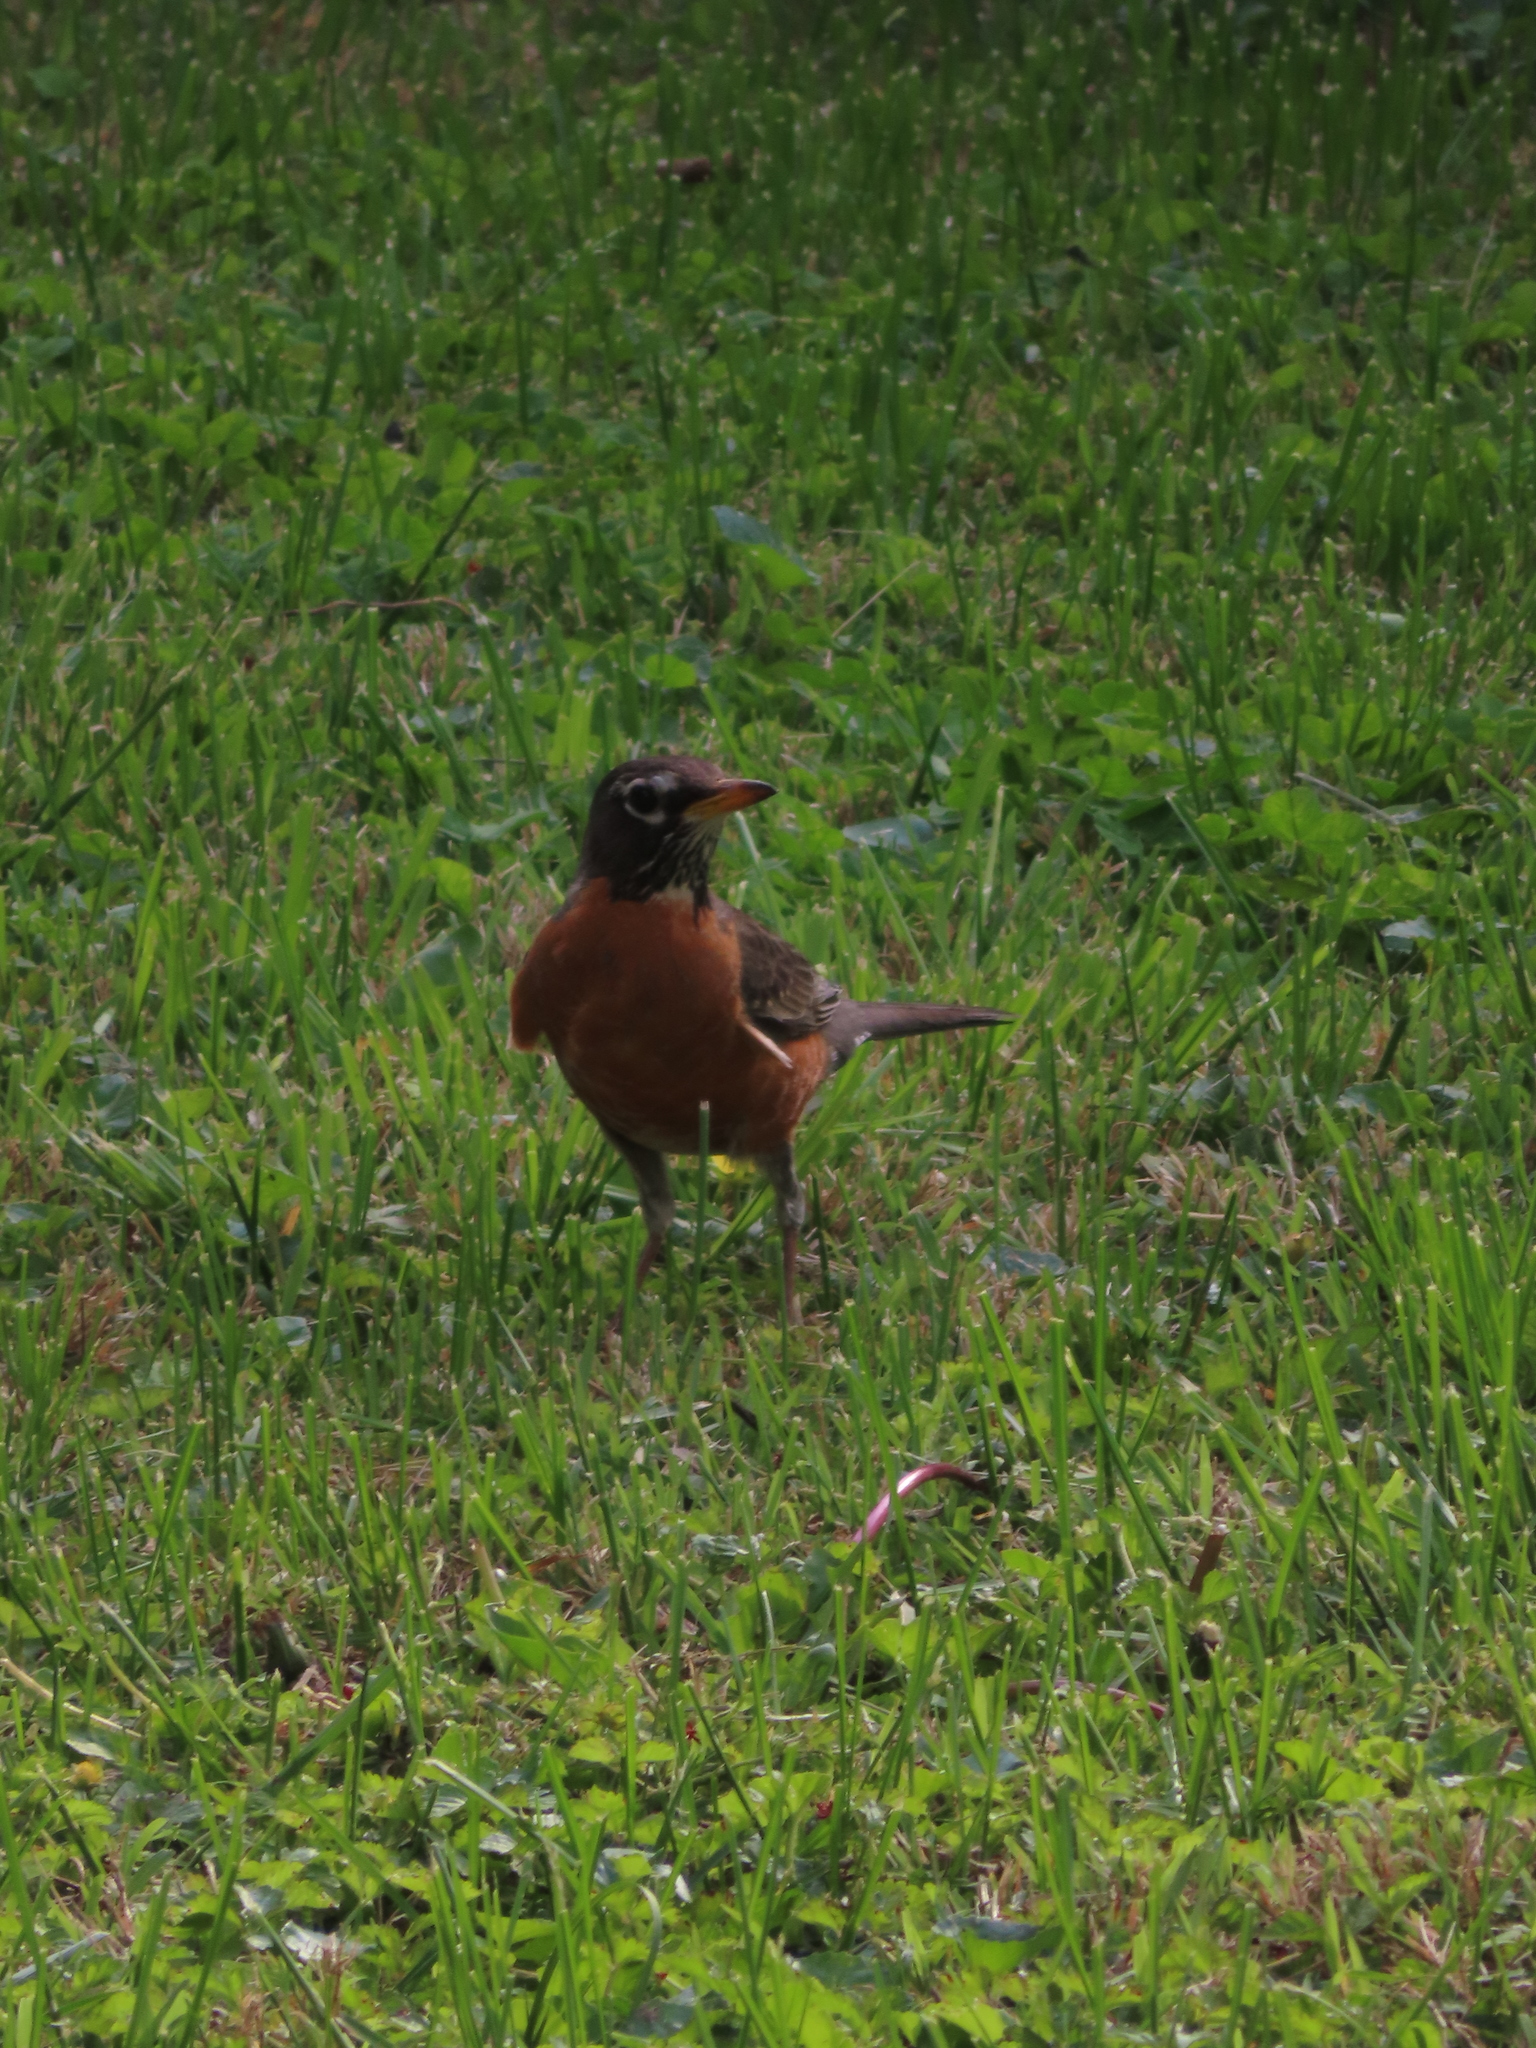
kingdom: Animalia
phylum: Chordata
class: Aves
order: Passeriformes
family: Turdidae
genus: Turdus
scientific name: Turdus migratorius
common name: American robin
